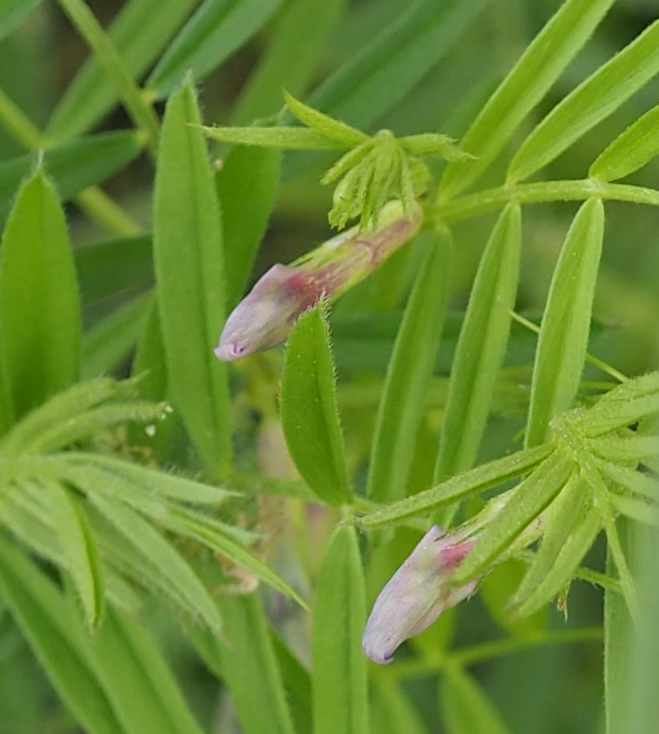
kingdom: Plantae
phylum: Tracheophyta
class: Magnoliopsida
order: Fabales
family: Fabaceae
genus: Vicia
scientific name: Vicia sativa
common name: Garden vetch
